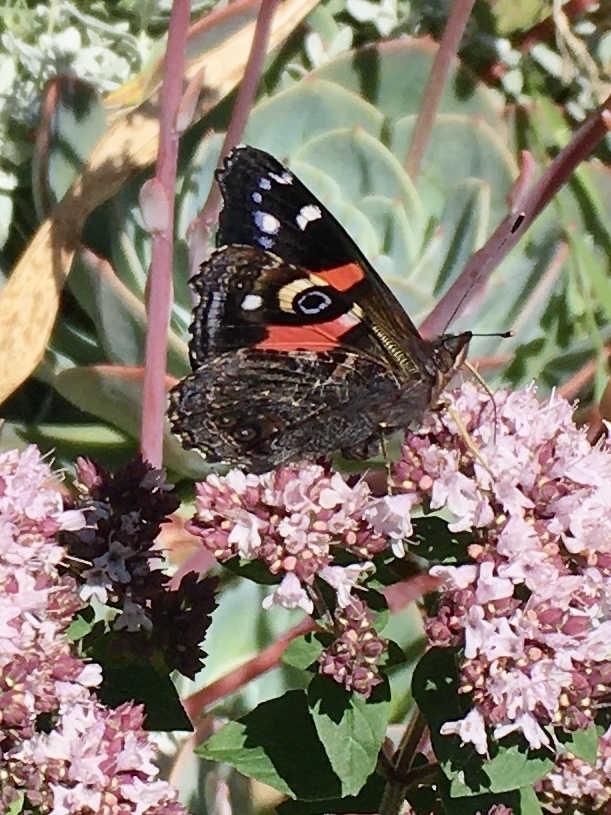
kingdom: Animalia
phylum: Arthropoda
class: Insecta
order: Lepidoptera
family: Nymphalidae
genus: Vanessa
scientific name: Vanessa gonerilla
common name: New zealand red admiral
